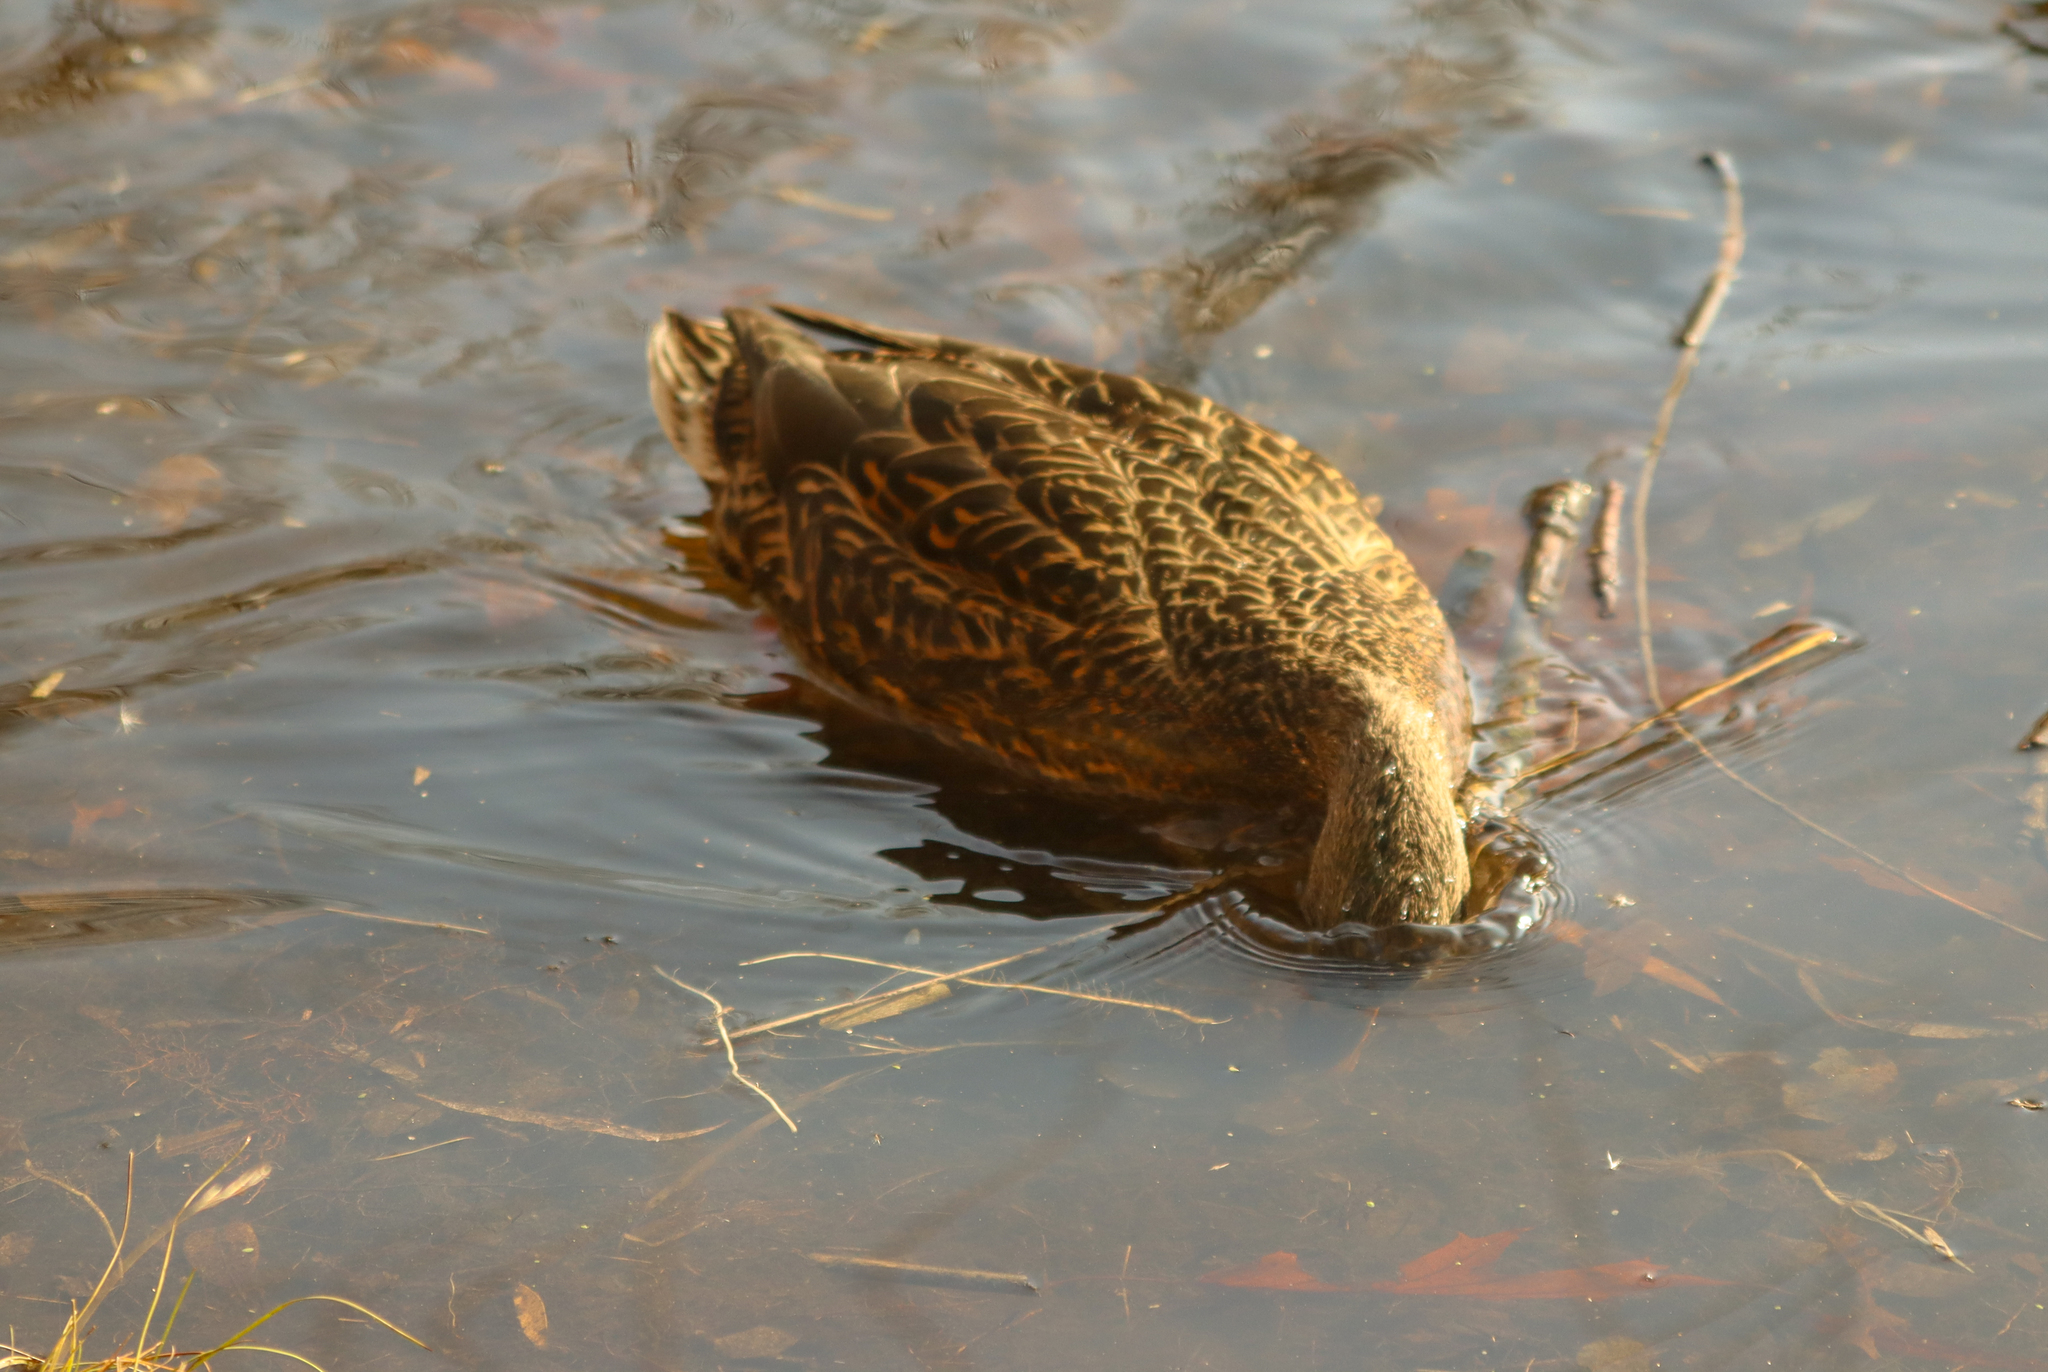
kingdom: Animalia
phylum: Chordata
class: Aves
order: Anseriformes
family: Anatidae
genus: Anas
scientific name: Anas platyrhynchos
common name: Mallard
